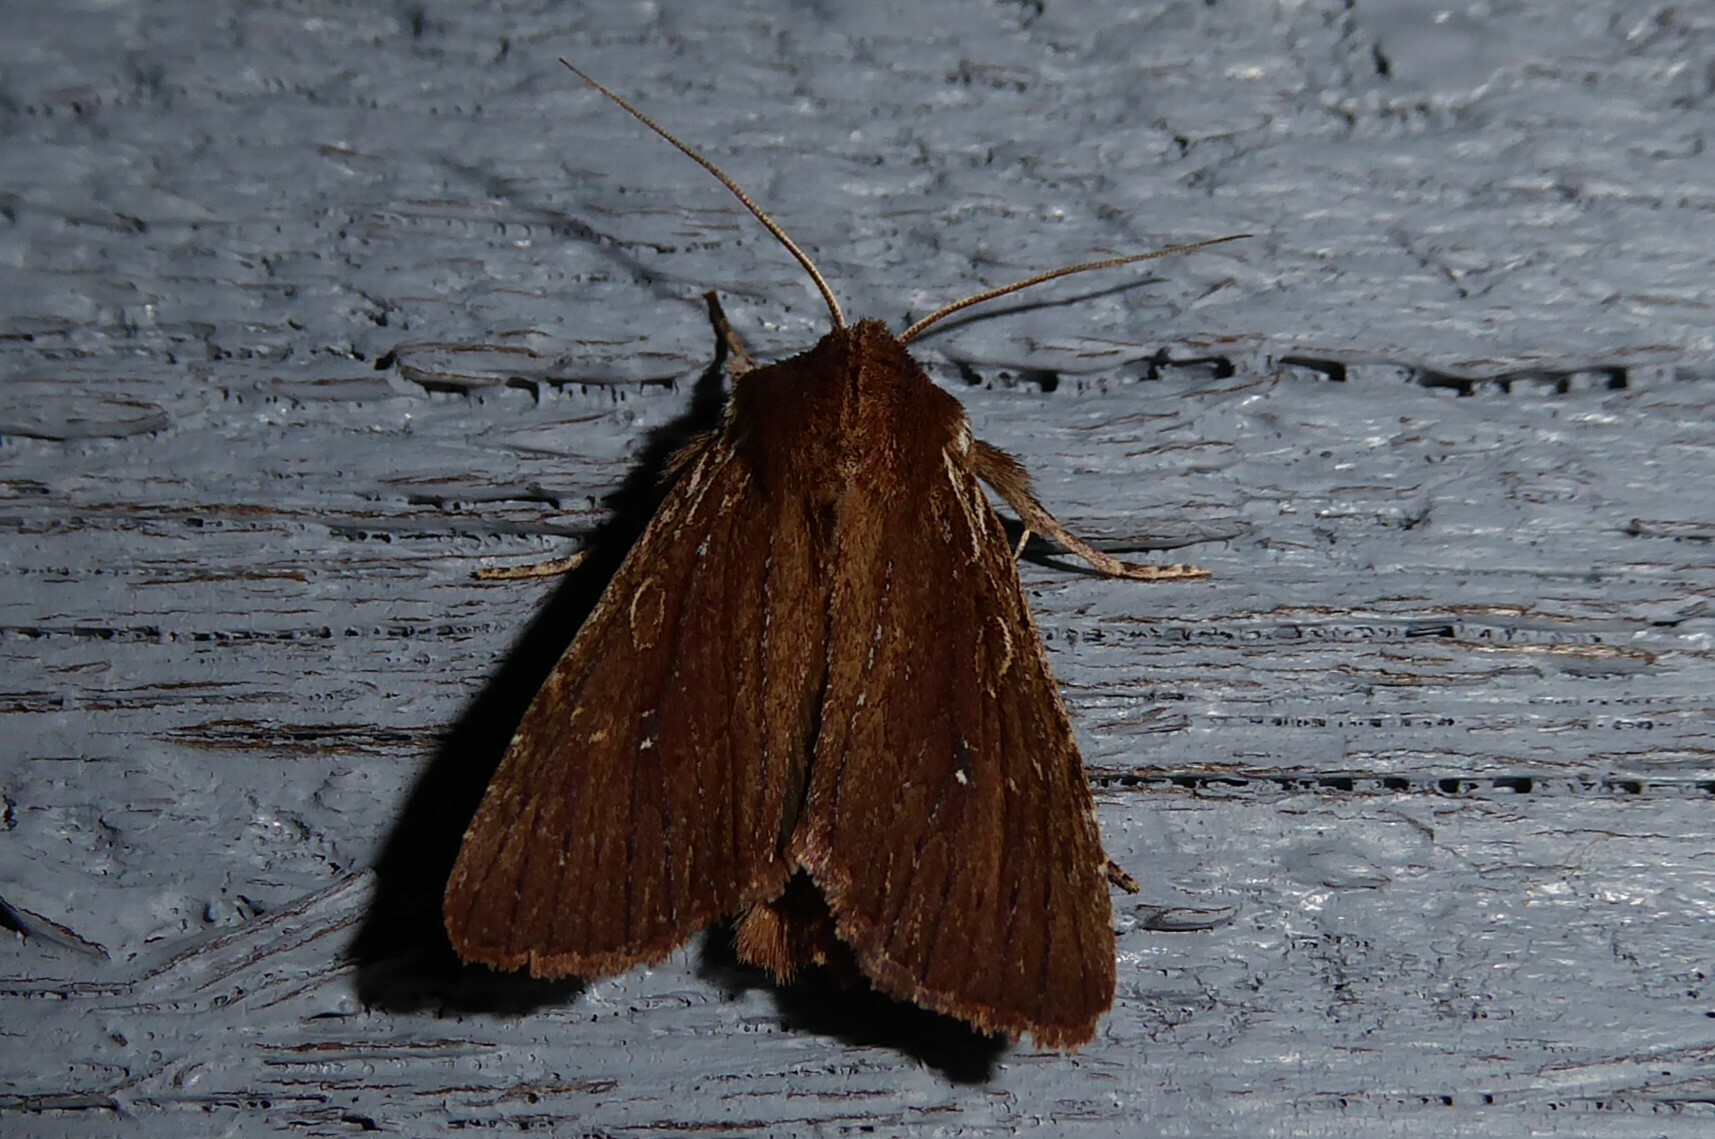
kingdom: Animalia
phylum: Arthropoda
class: Insecta
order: Lepidoptera
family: Noctuidae
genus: Ichneutica
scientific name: Ichneutica
